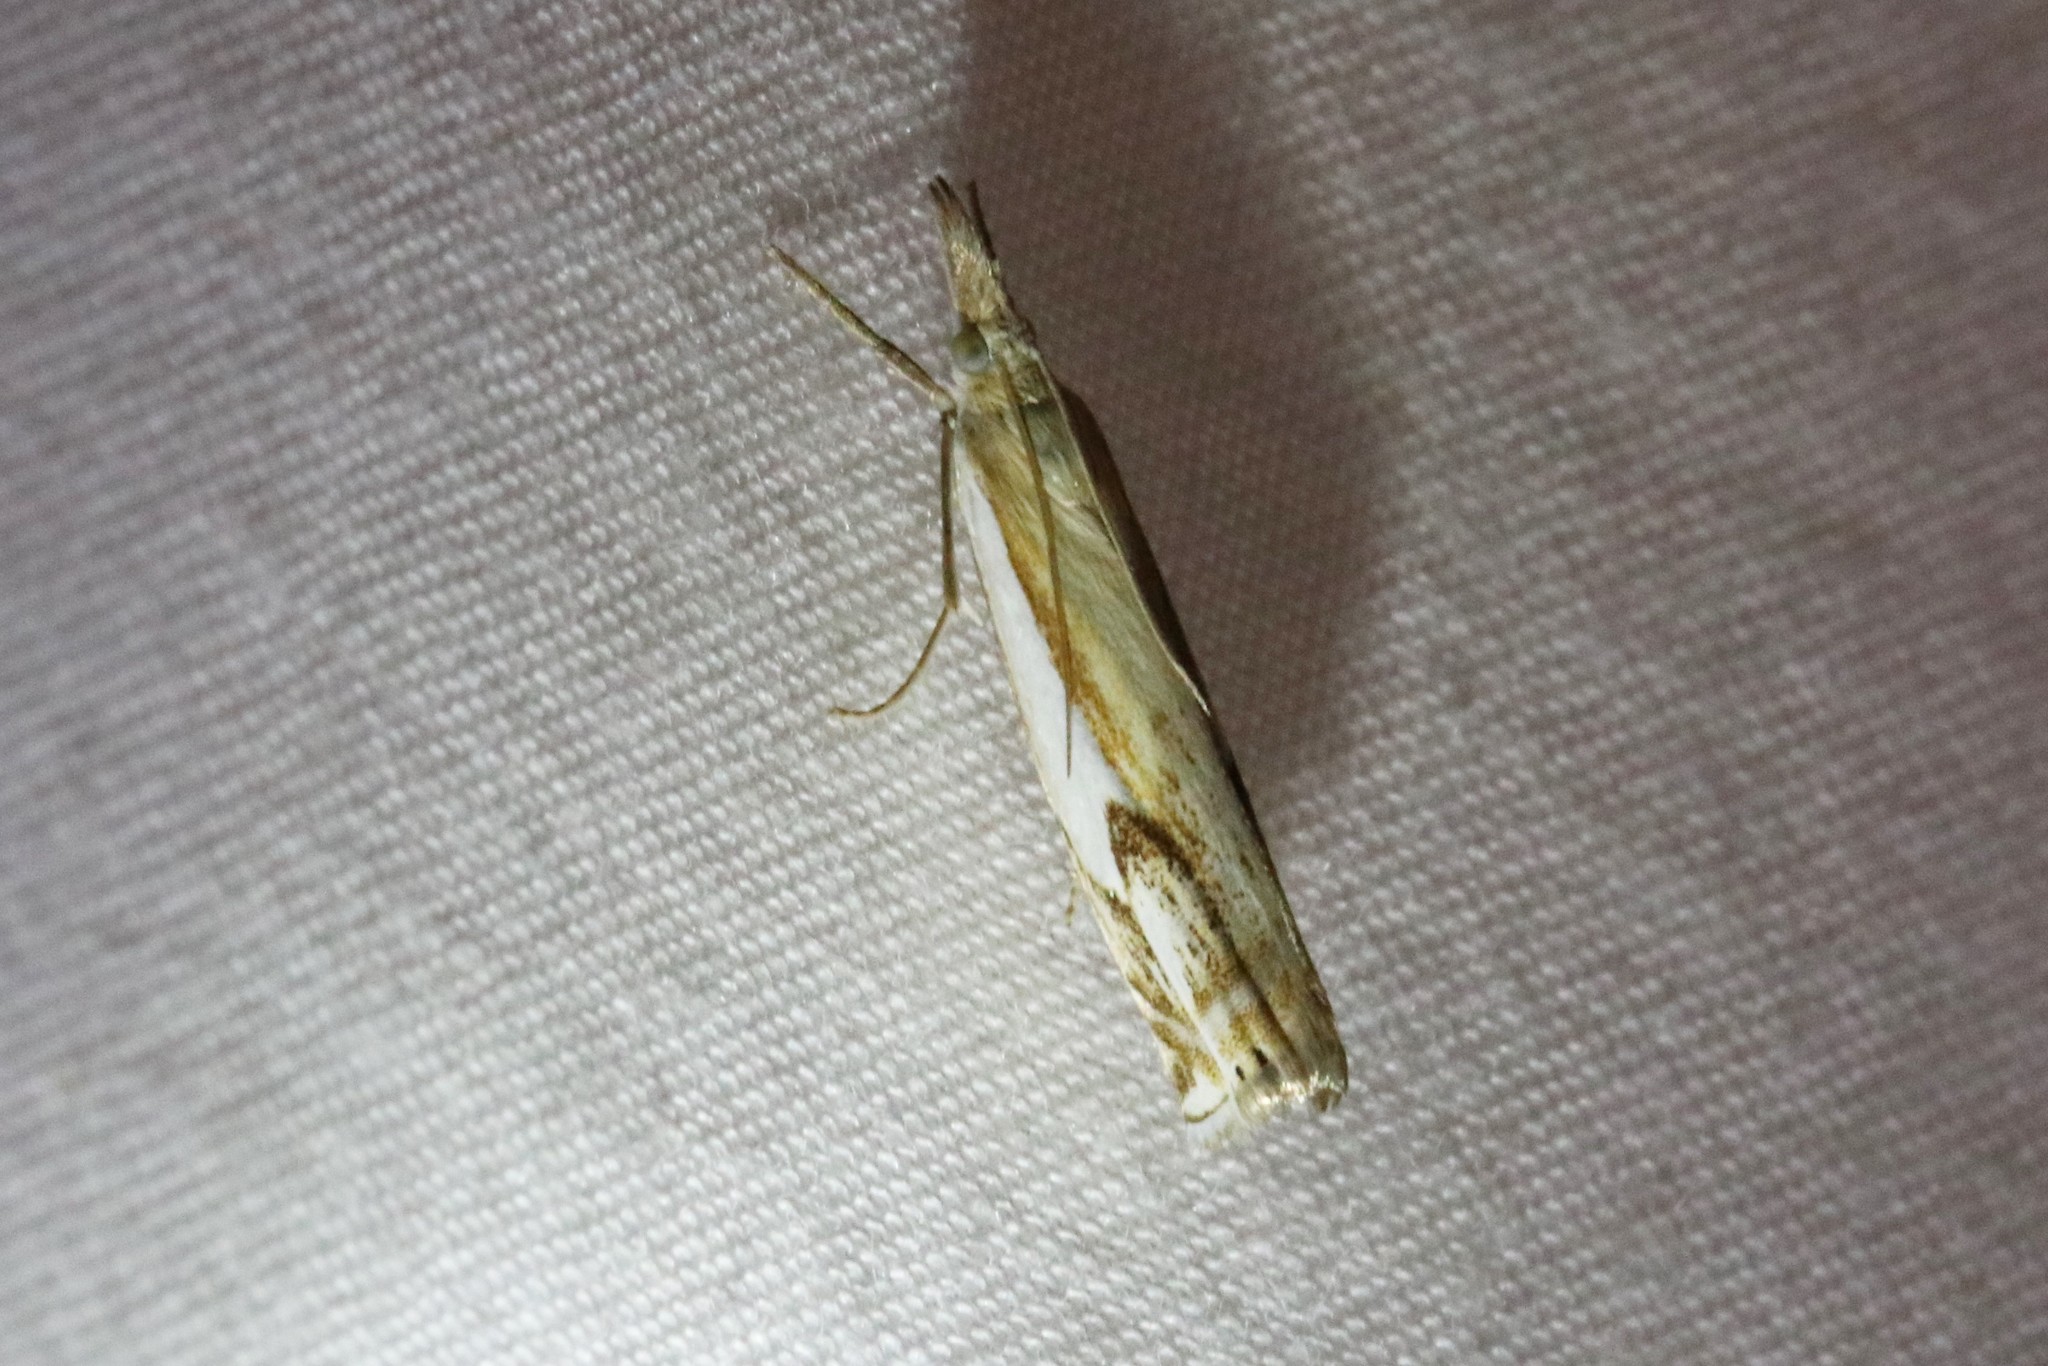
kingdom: Animalia
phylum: Arthropoda
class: Insecta
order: Lepidoptera
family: Crambidae
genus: Crambus
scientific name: Crambus agitatellus
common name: Double-banded grass-veneer
